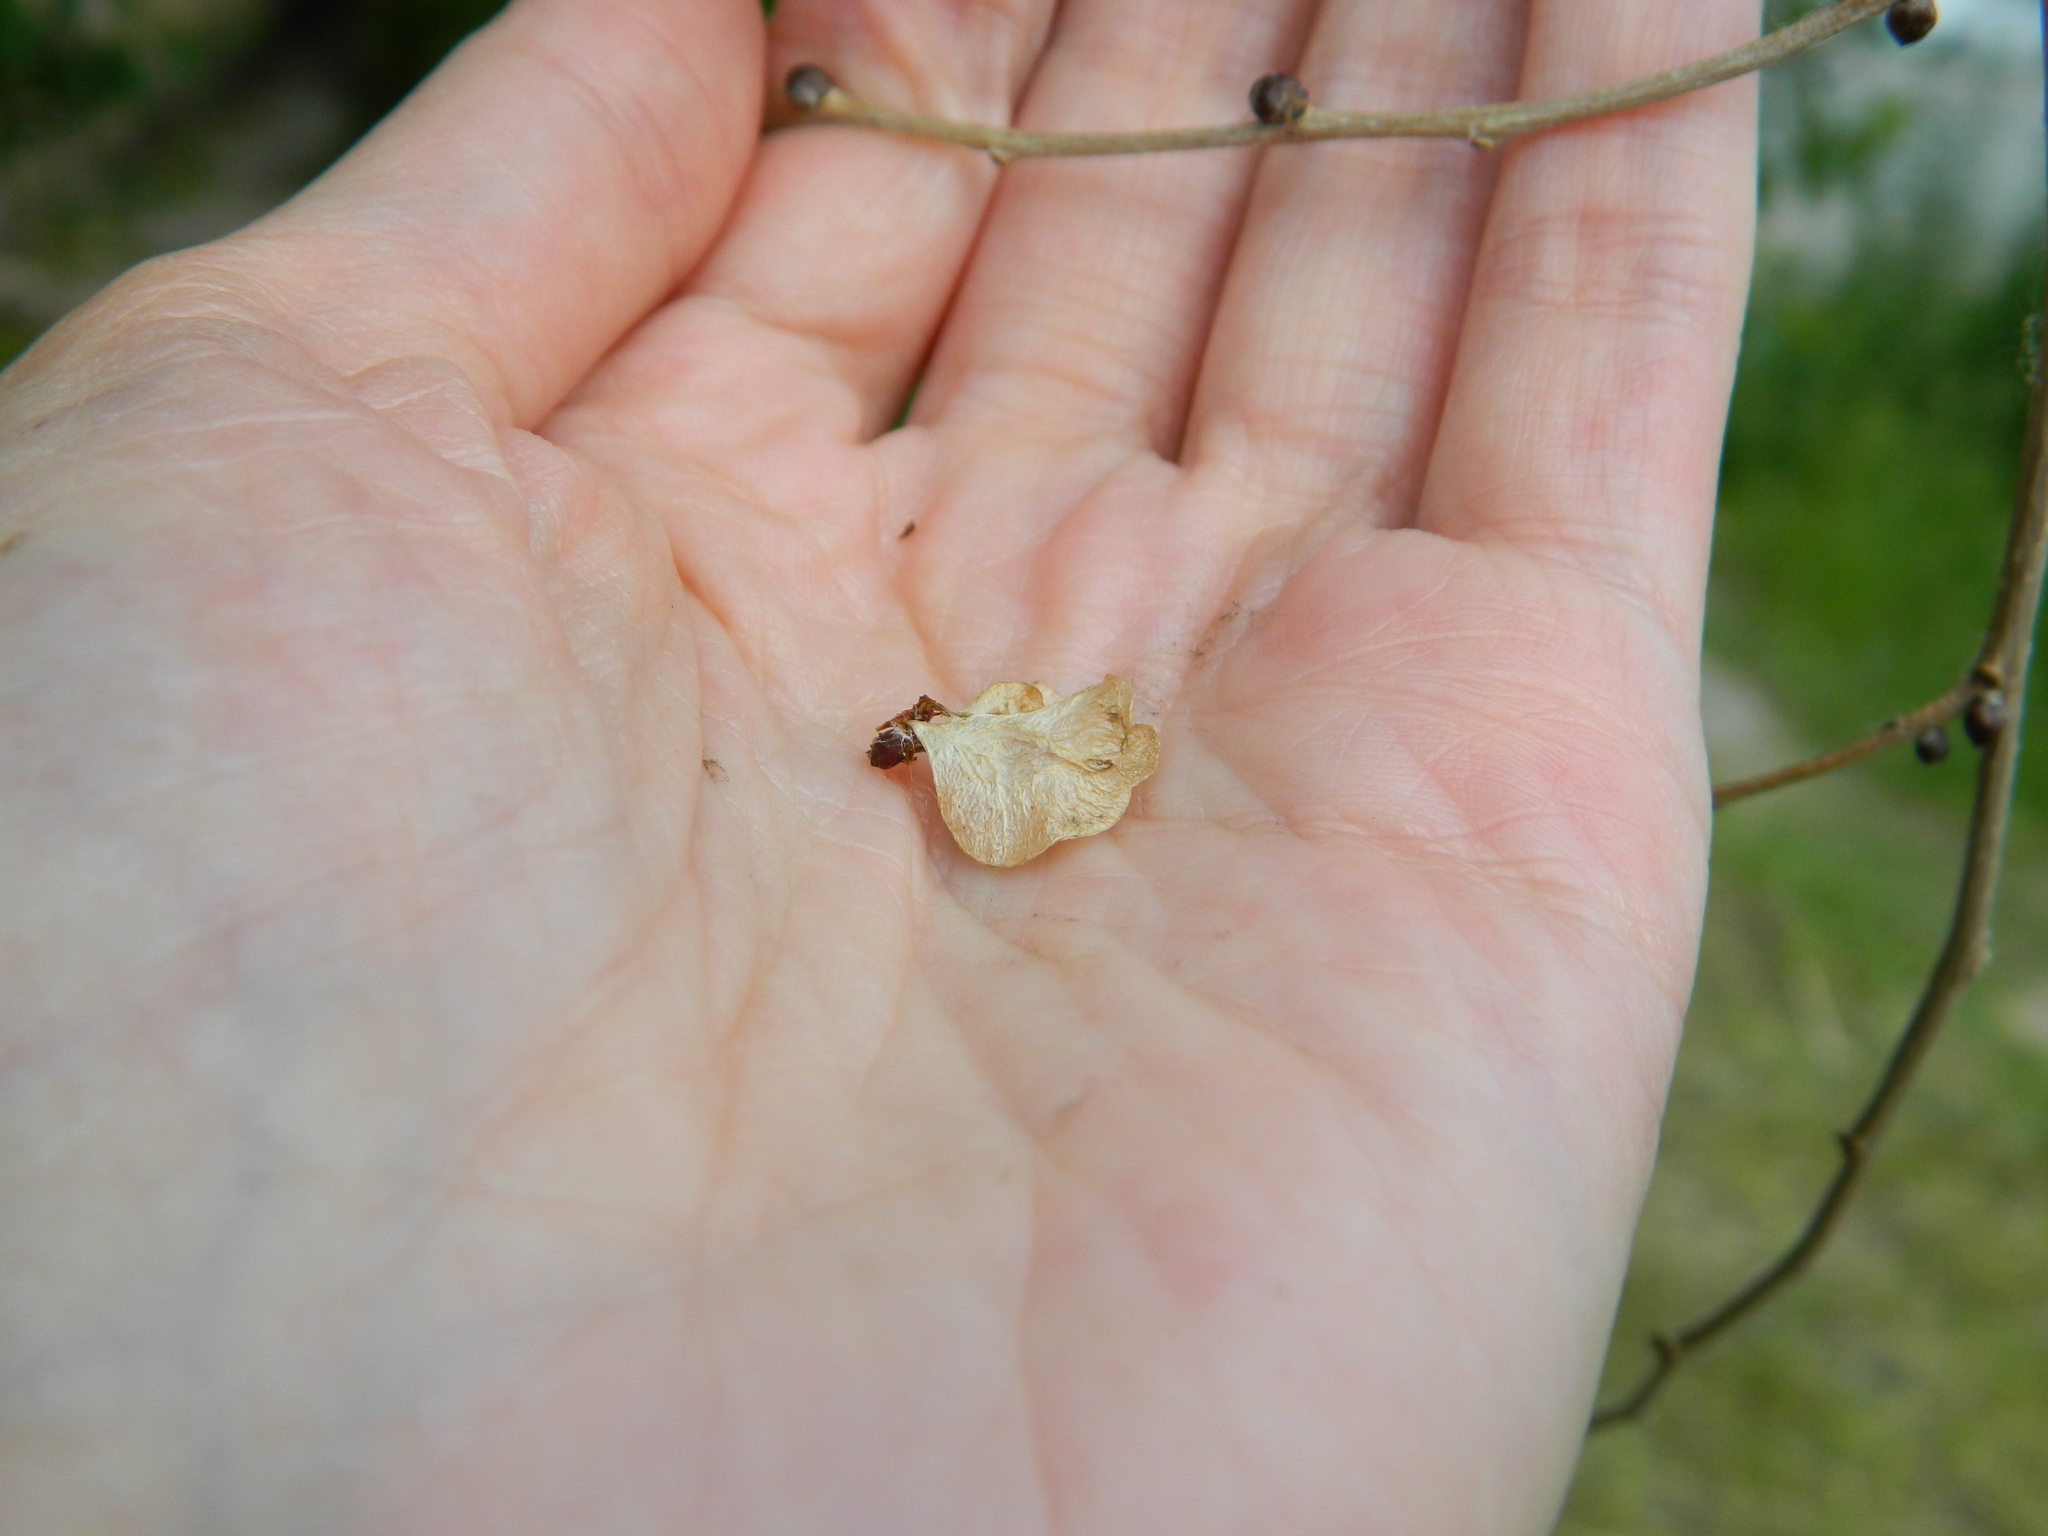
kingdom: Plantae
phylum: Tracheophyta
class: Magnoliopsida
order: Rosales
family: Ulmaceae
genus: Ulmus
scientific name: Ulmus pumila
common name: Siberian elm
